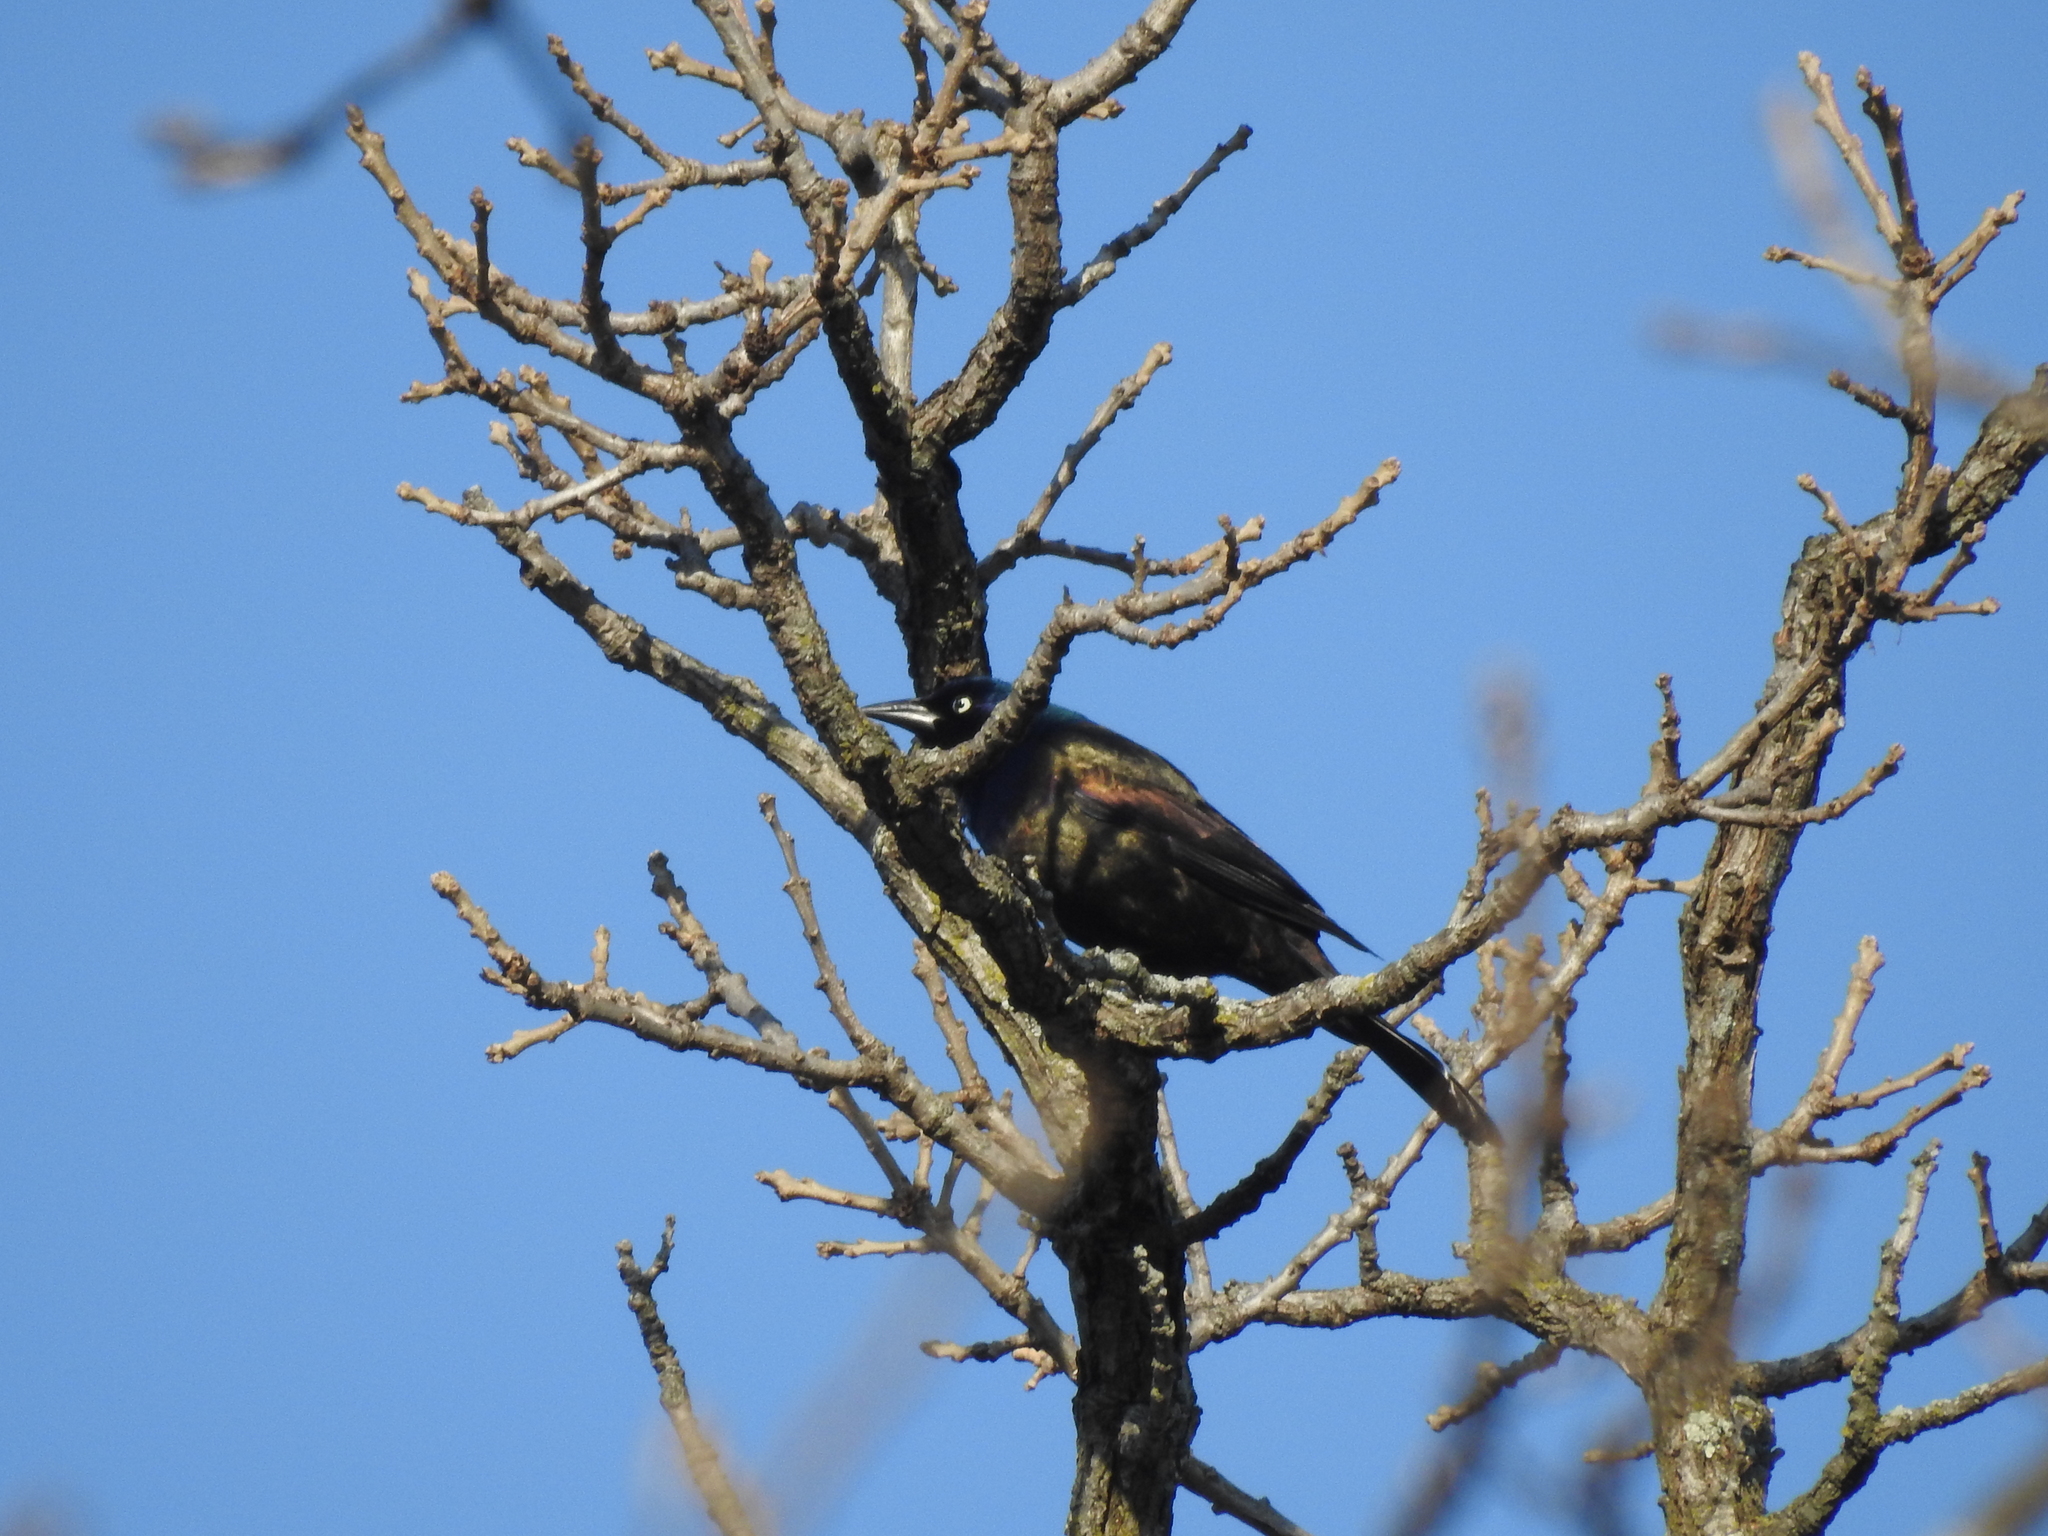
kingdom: Animalia
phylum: Chordata
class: Aves
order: Passeriformes
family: Icteridae
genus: Quiscalus
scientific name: Quiscalus quiscula
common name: Common grackle
